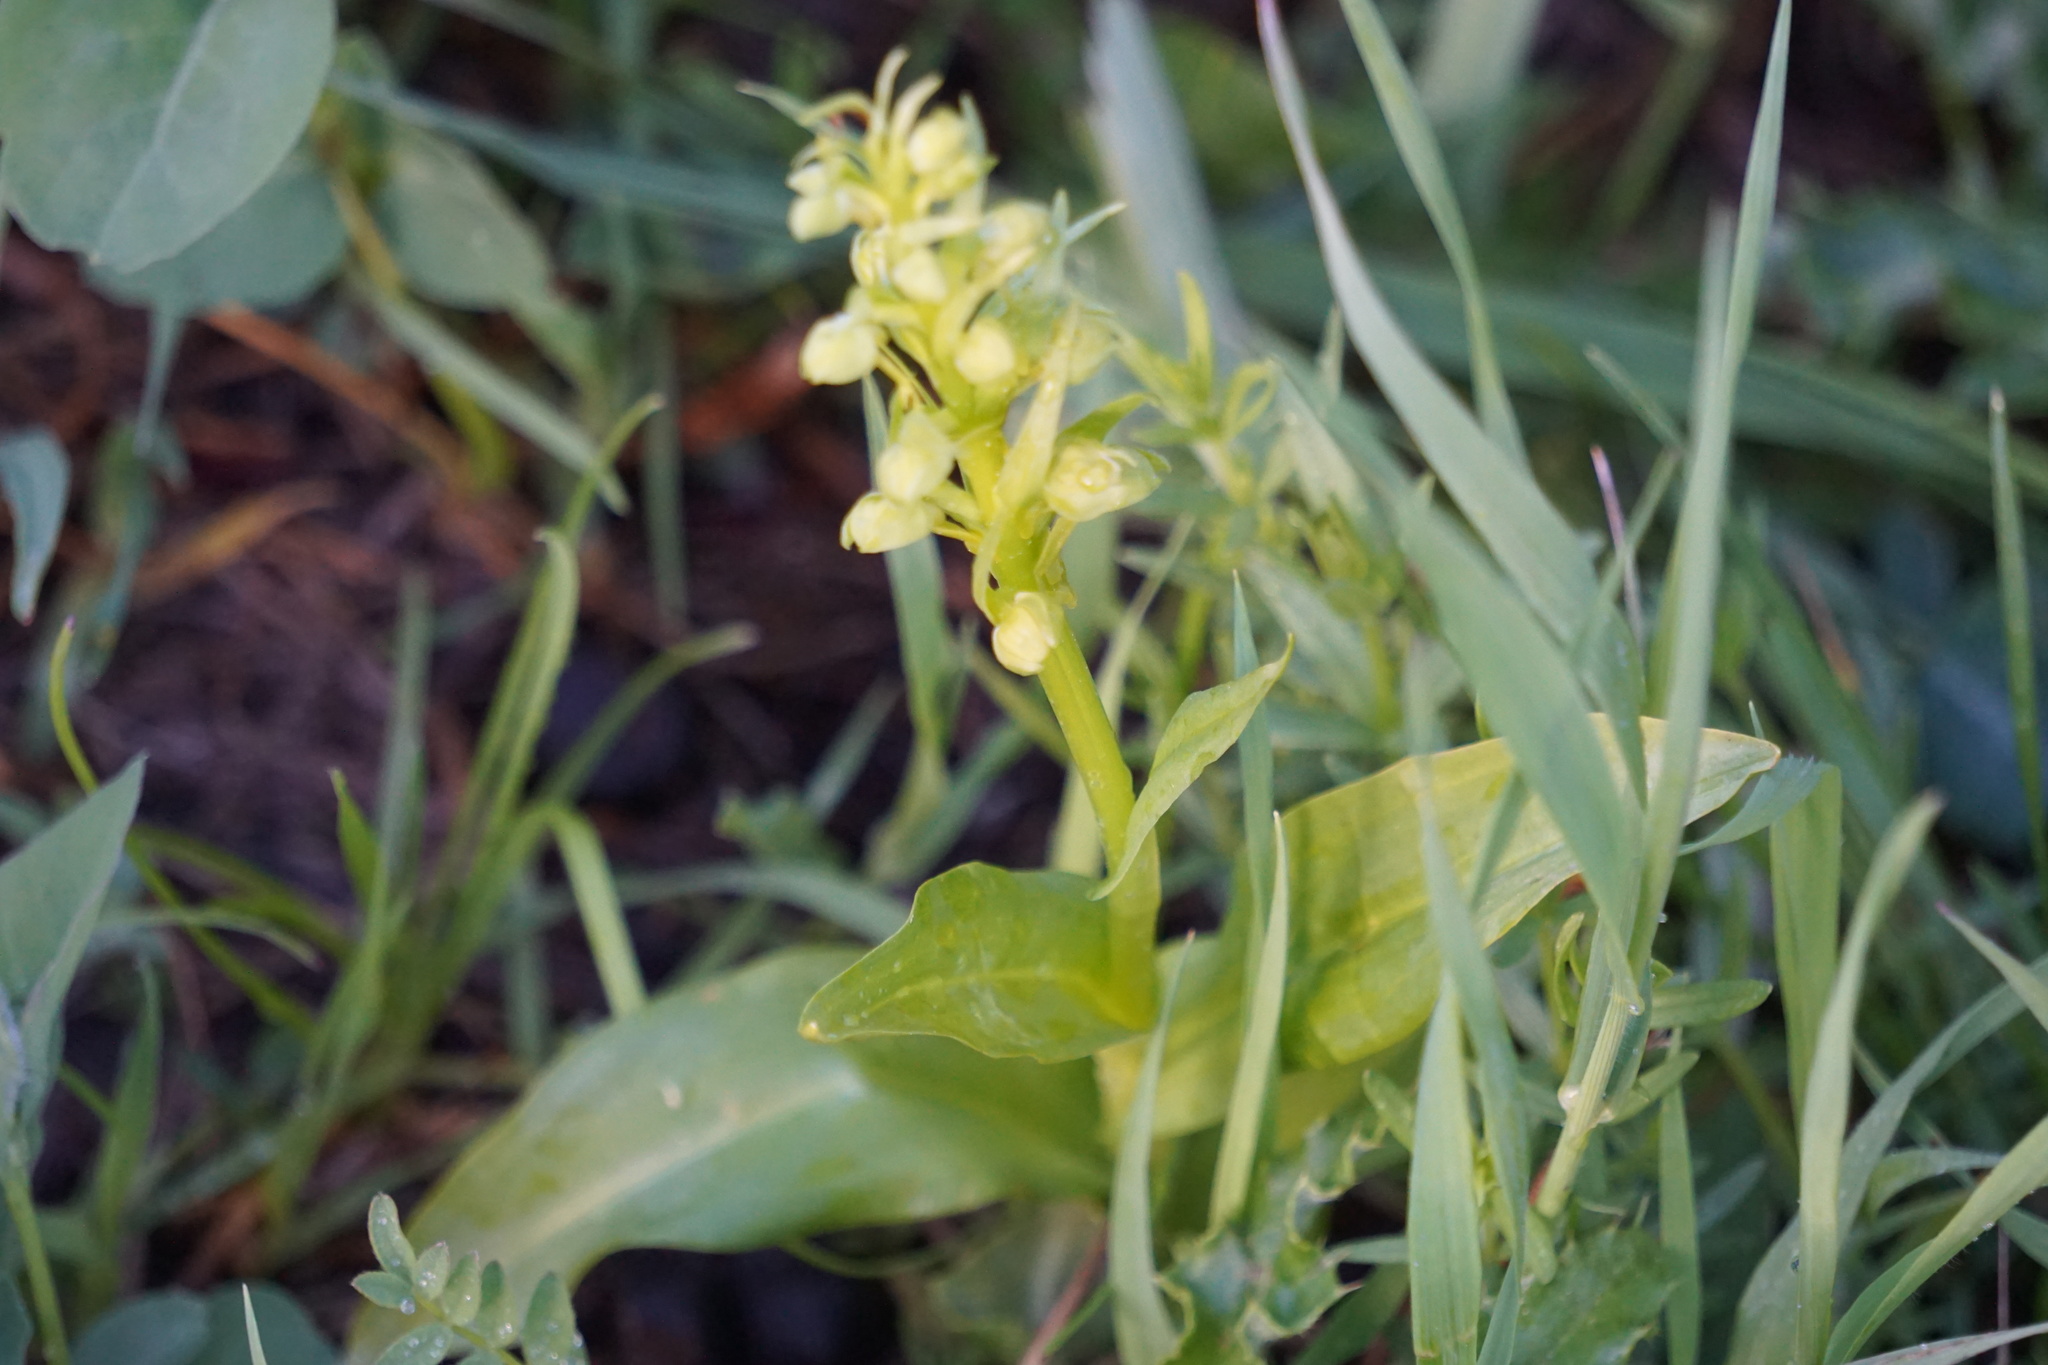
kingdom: Plantae
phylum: Tracheophyta
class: Liliopsida
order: Asparagales
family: Orchidaceae
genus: Dactylorhiza
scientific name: Dactylorhiza viridis
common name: Longbract frog orchid
